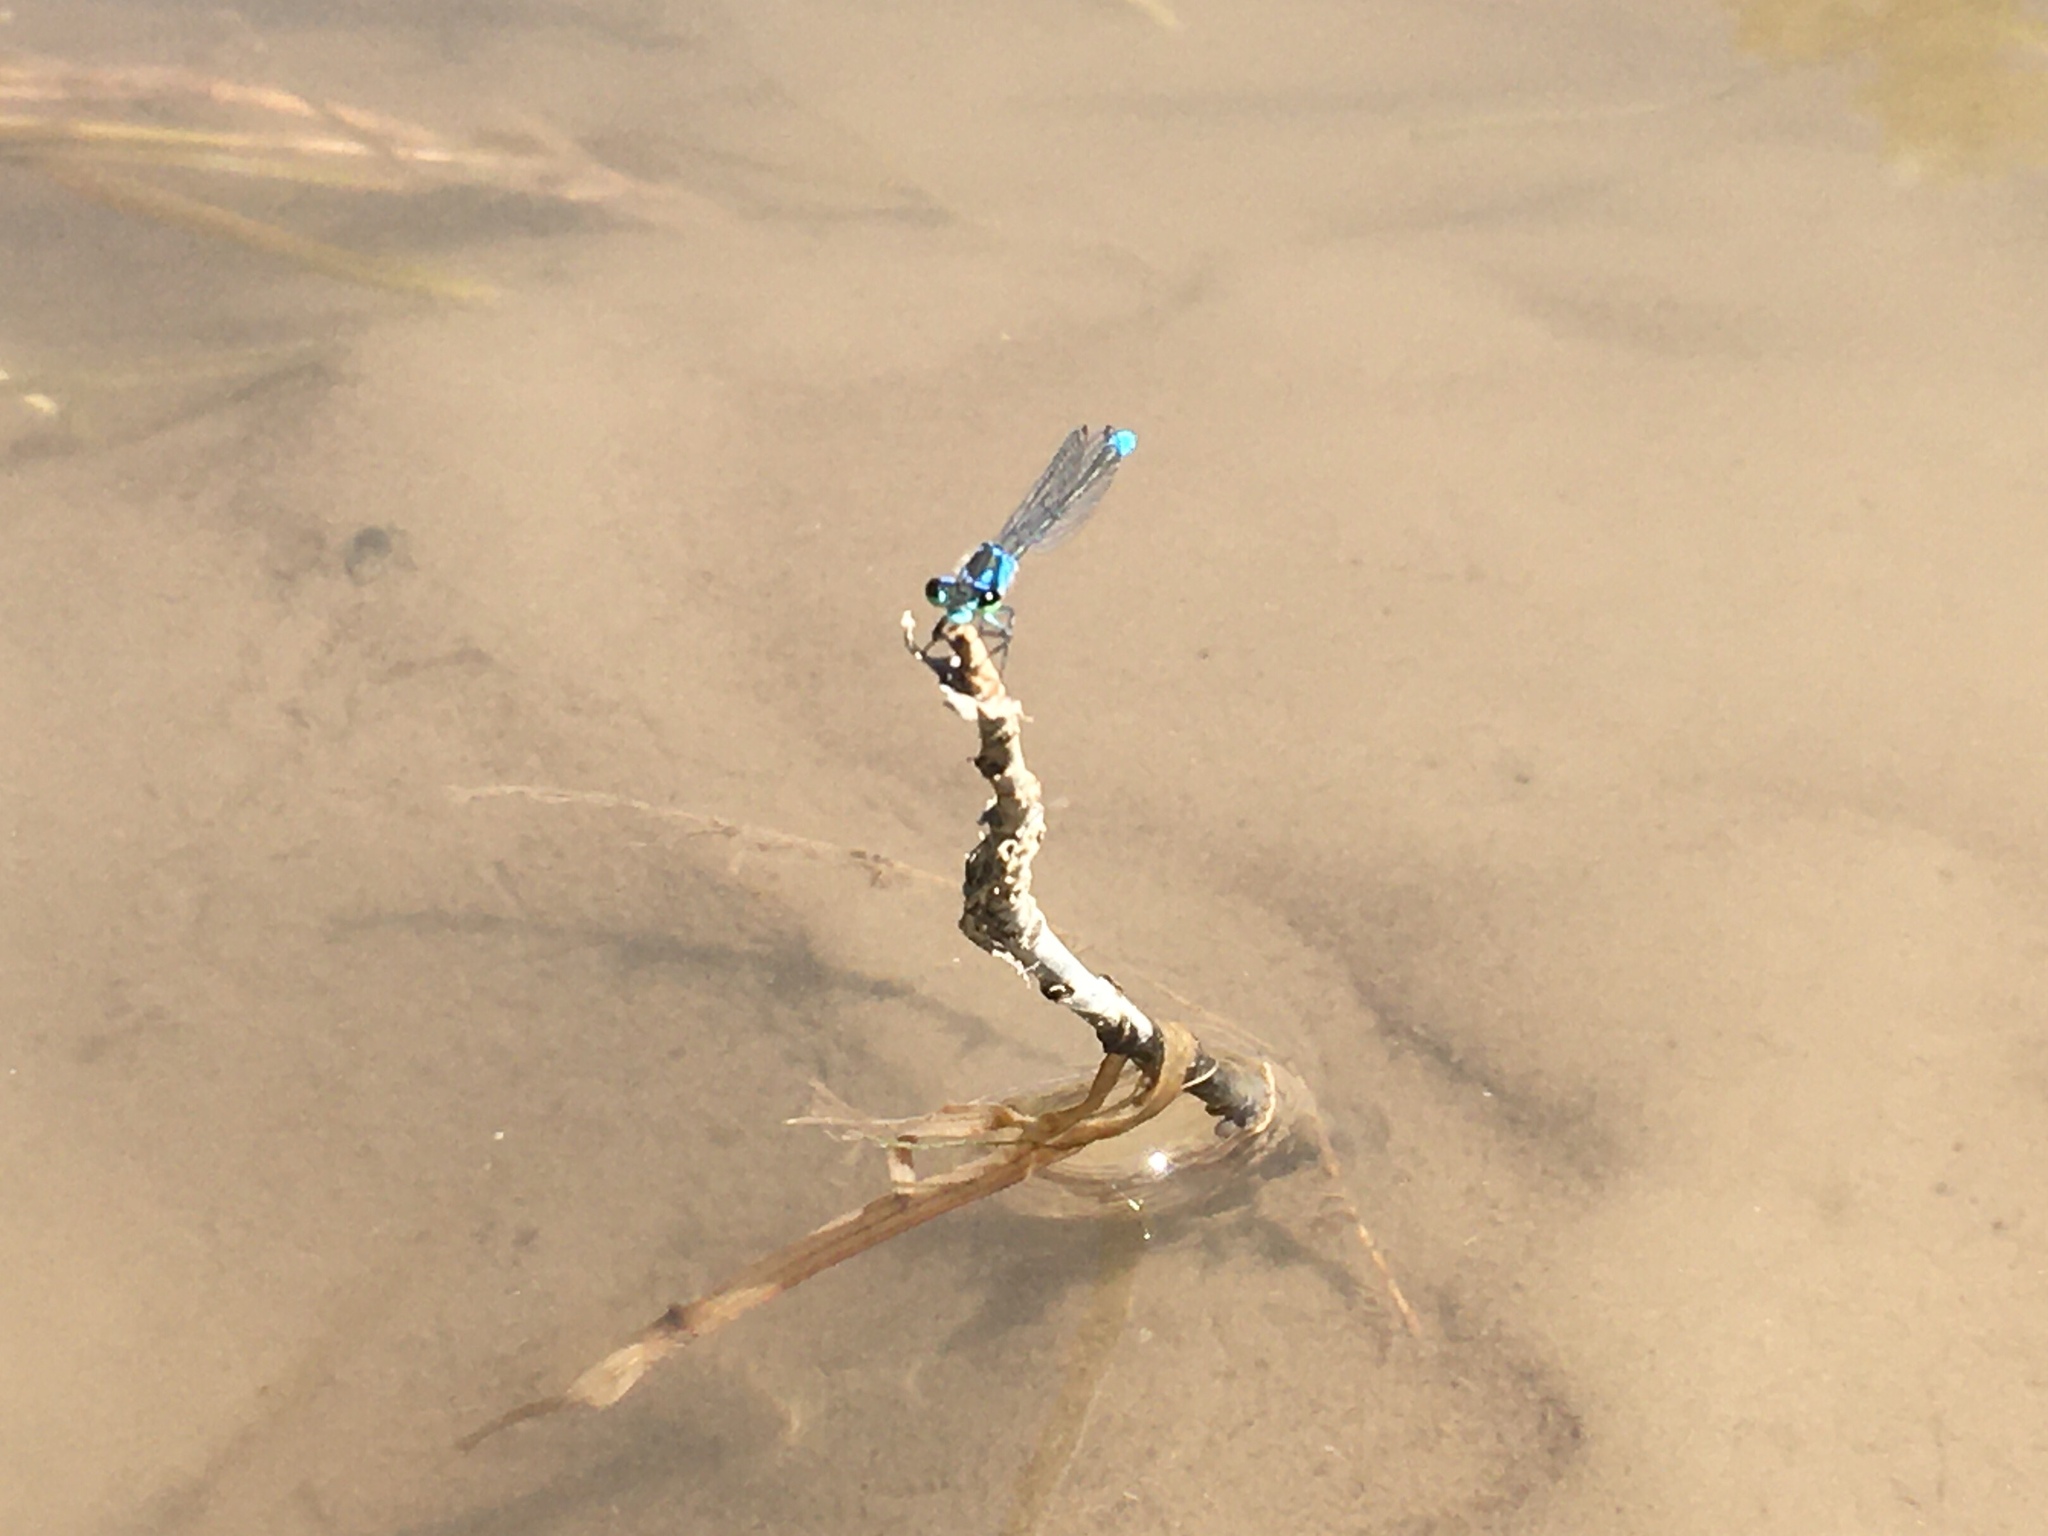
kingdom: Animalia
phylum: Arthropoda
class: Insecta
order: Odonata
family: Coenagrionidae
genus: Cyanallagma
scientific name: Cyanallagma bonariense
